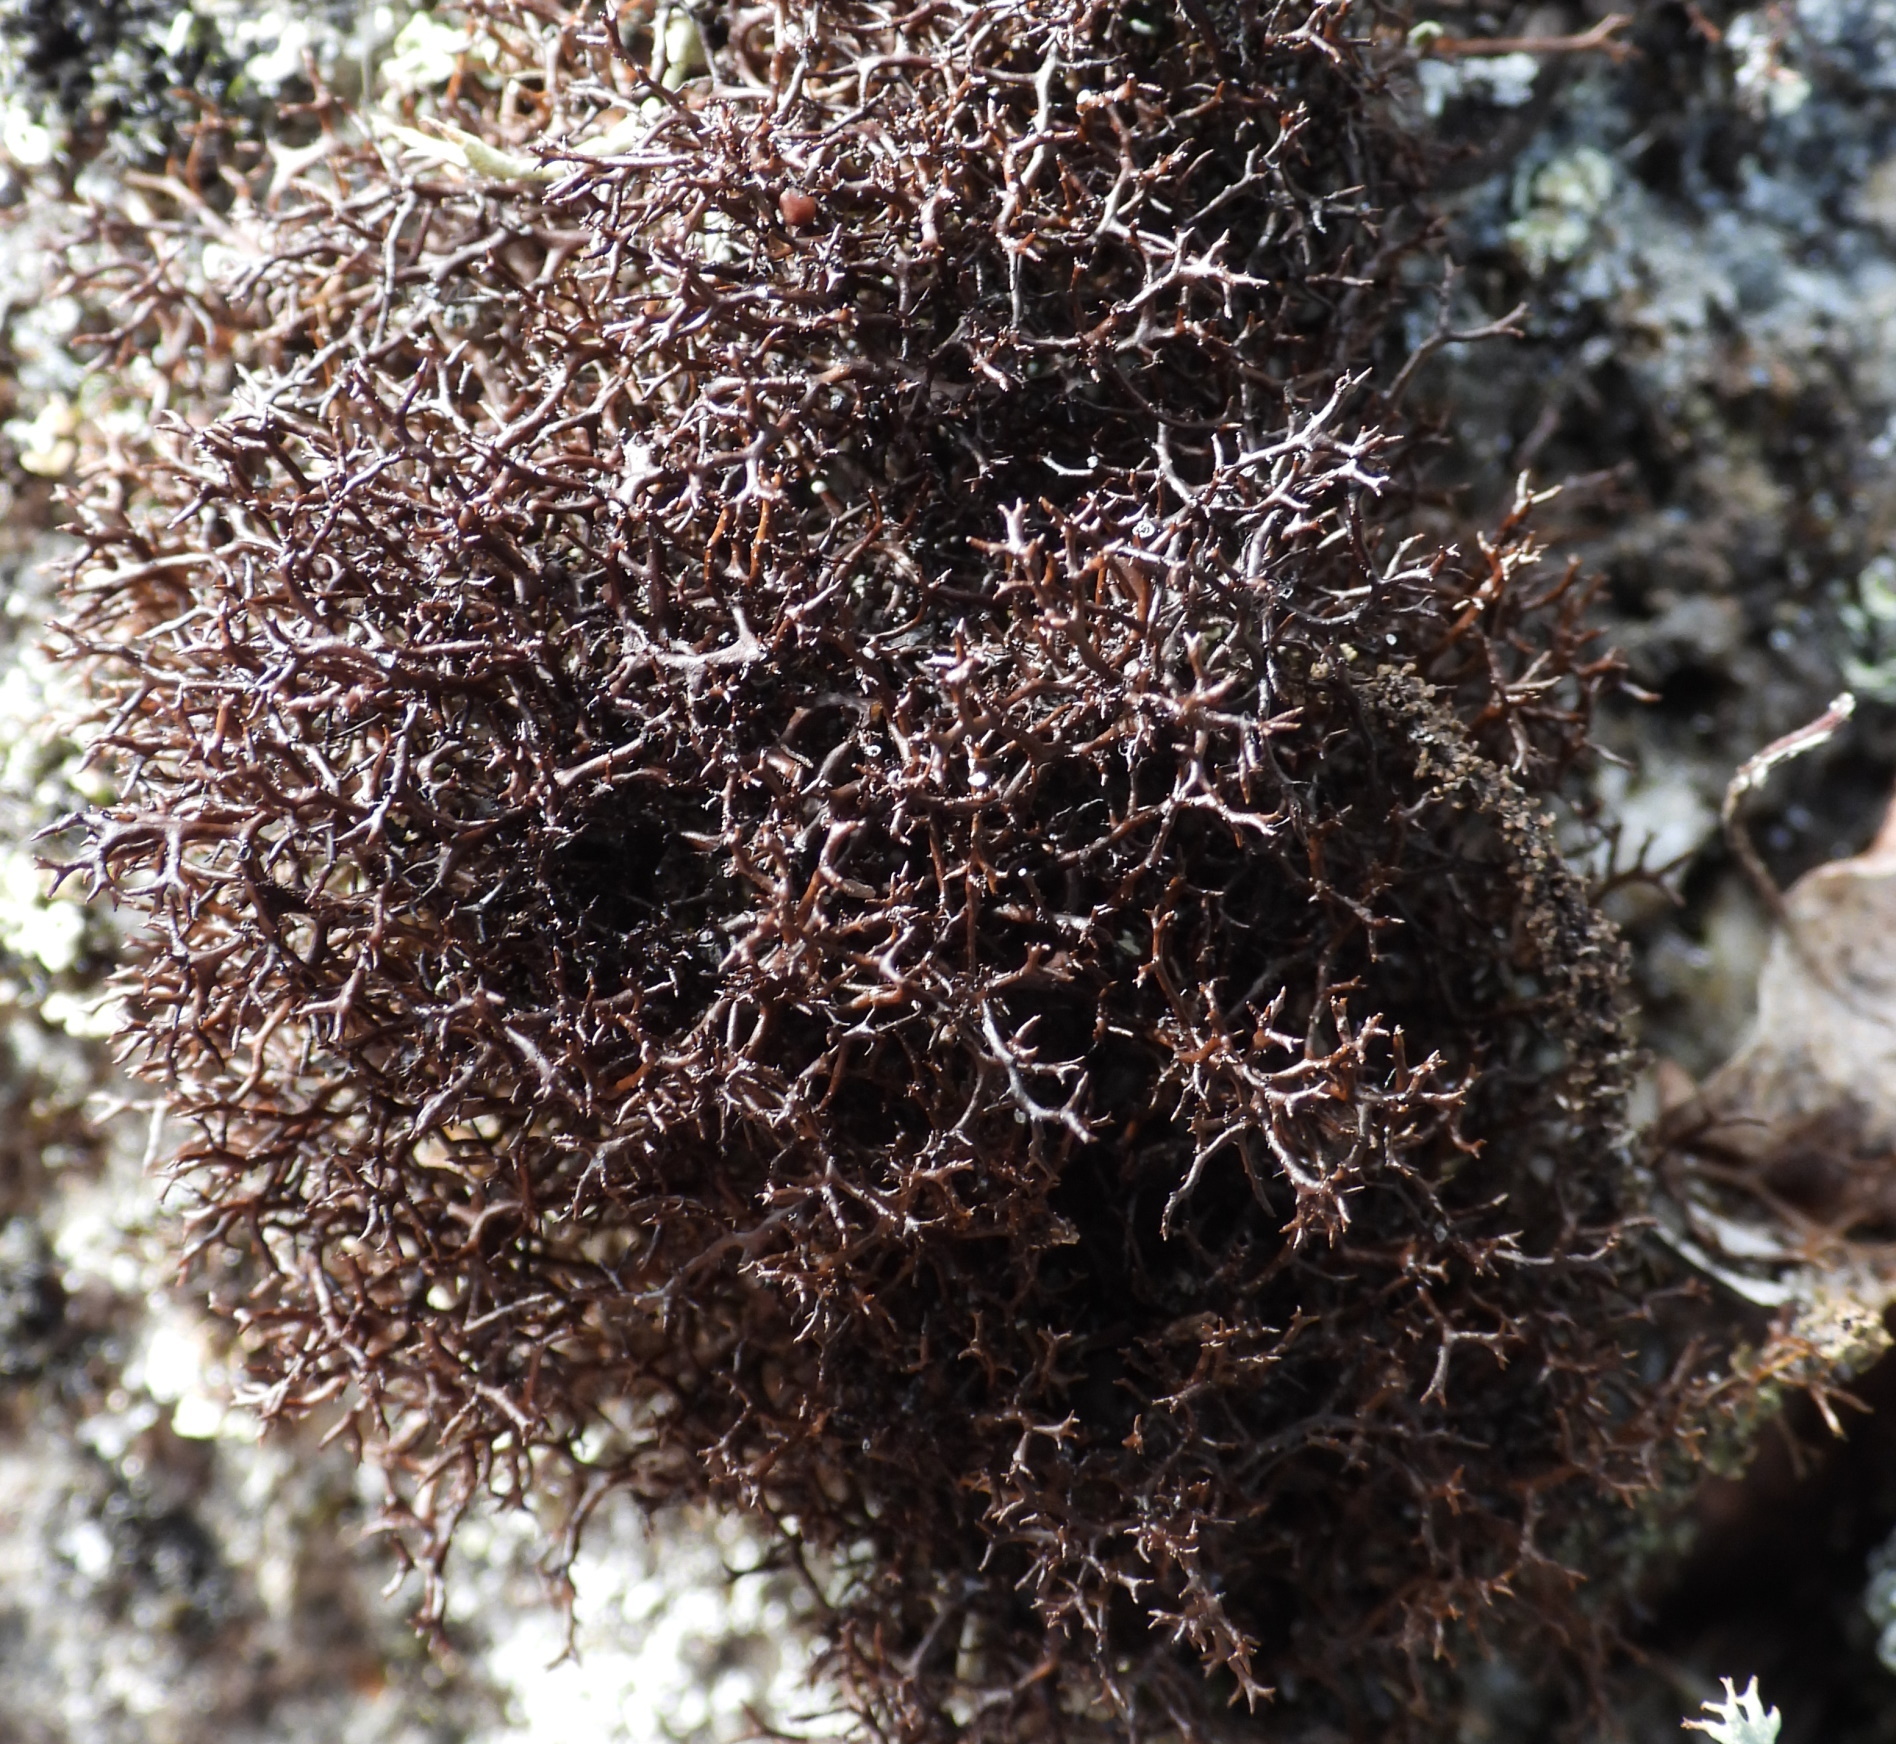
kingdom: Fungi
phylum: Ascomycota
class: Lecanoromycetes
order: Lecanorales
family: Parmeliaceae
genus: Cetraria
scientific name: Cetraria muricata
